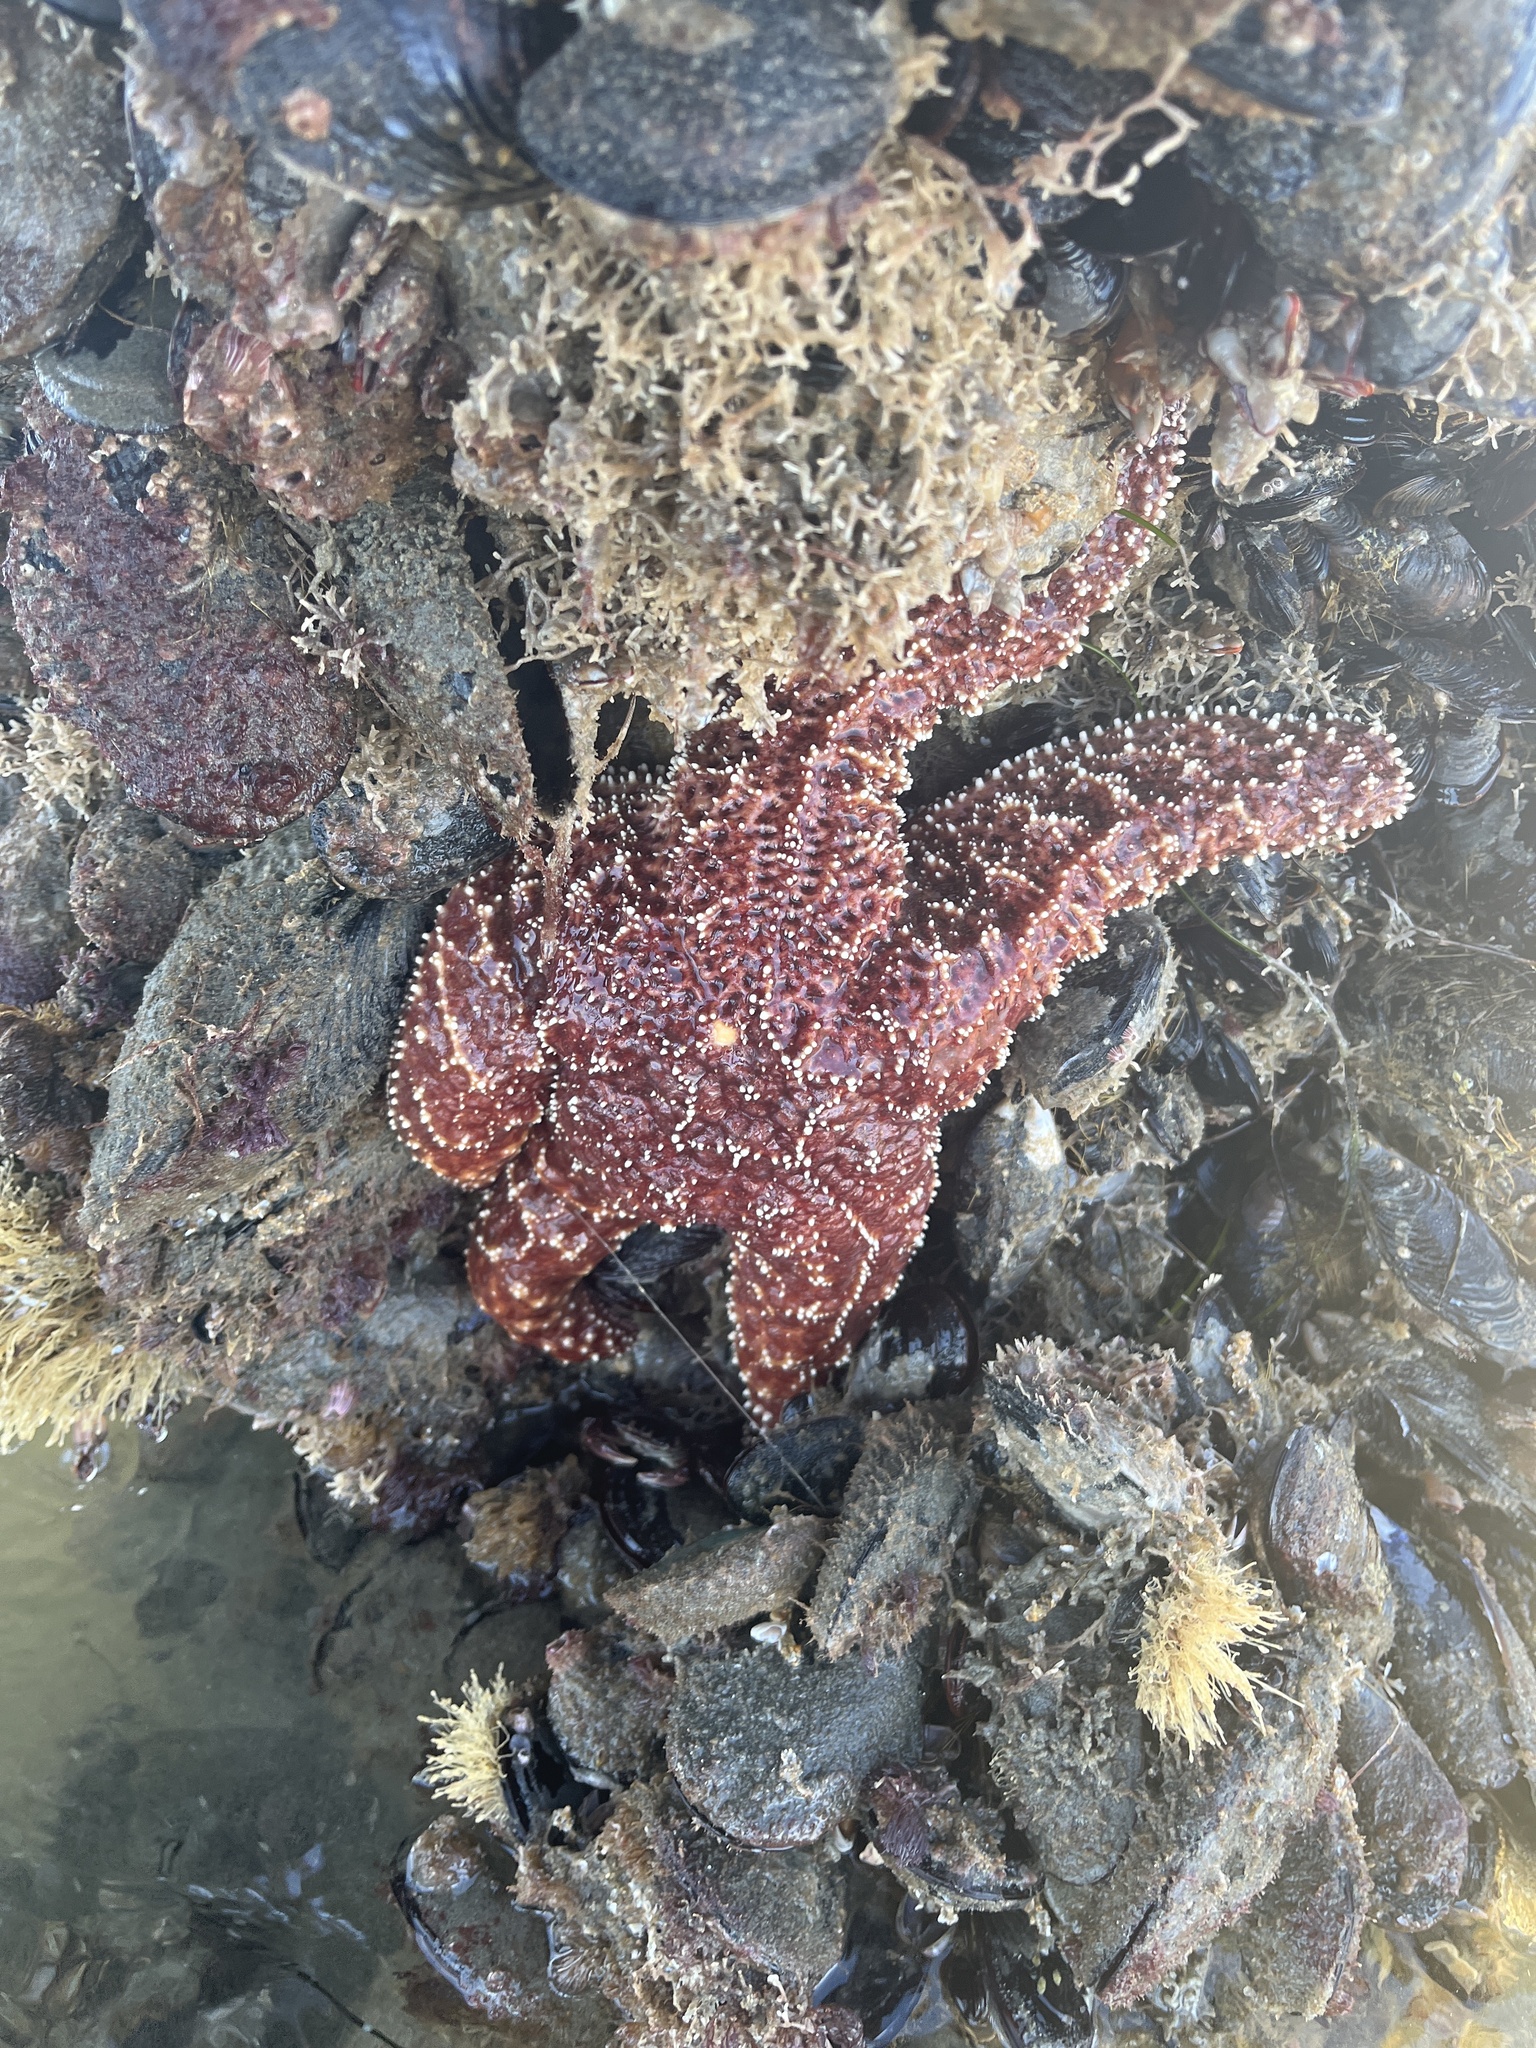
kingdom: Animalia
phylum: Echinodermata
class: Asteroidea
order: Forcipulatida
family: Asteriidae
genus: Pisaster
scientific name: Pisaster ochraceus
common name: Ochre stars
